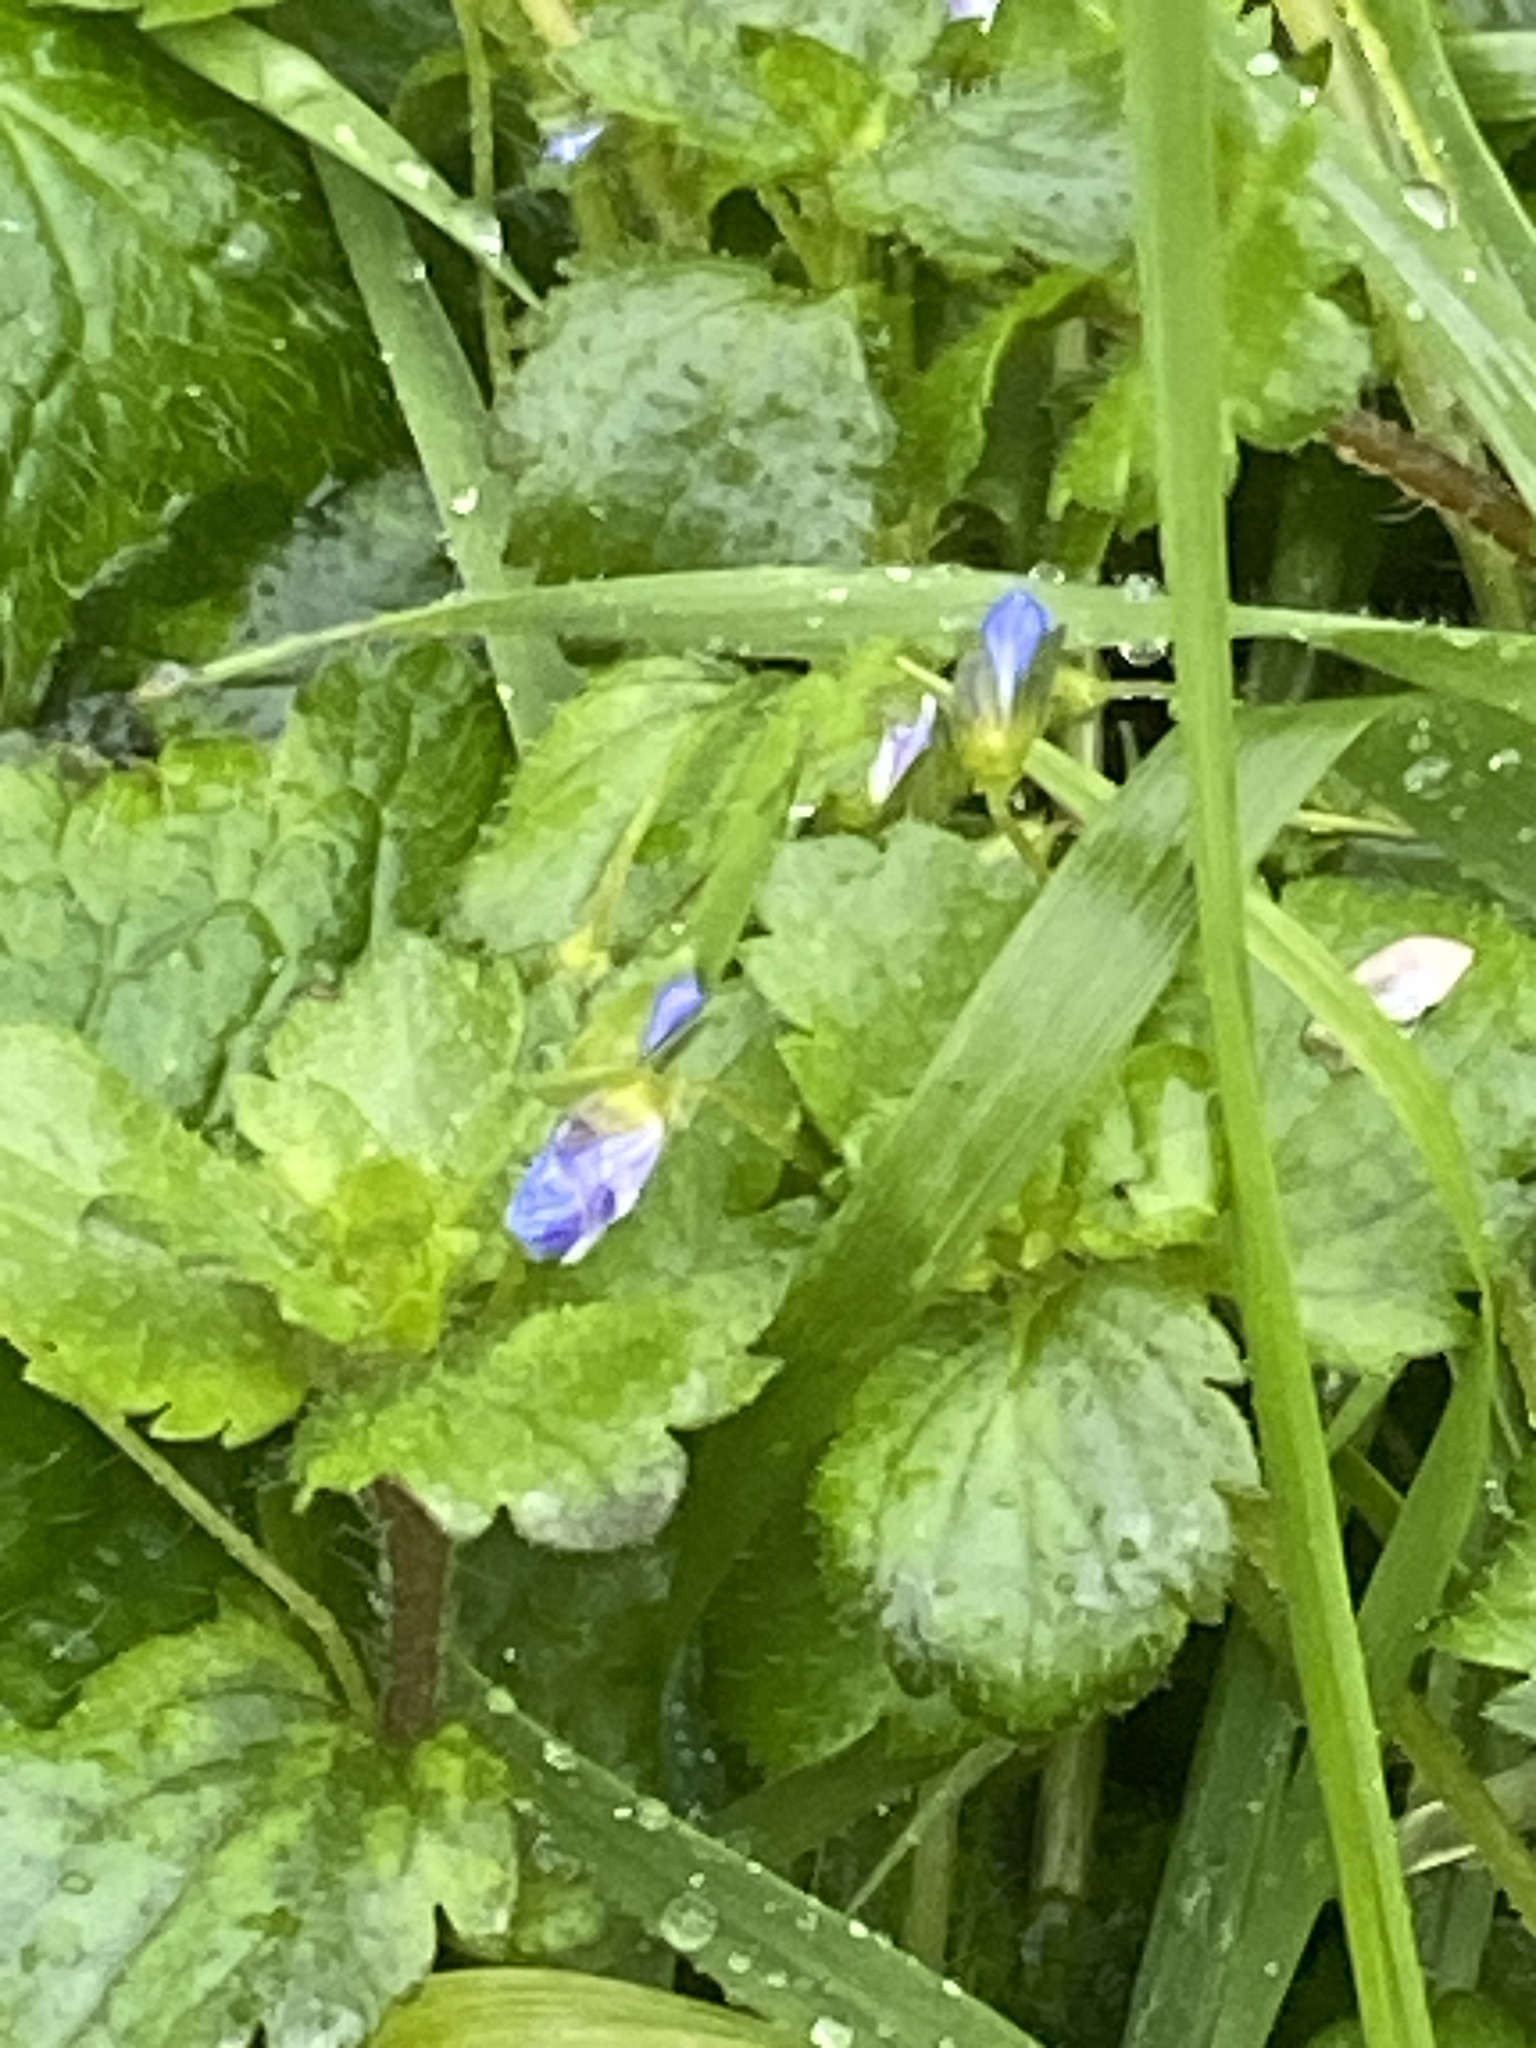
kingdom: Plantae
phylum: Tracheophyta
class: Magnoliopsida
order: Lamiales
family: Plantaginaceae
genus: Veronica
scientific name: Veronica persica
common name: Common field-speedwell
